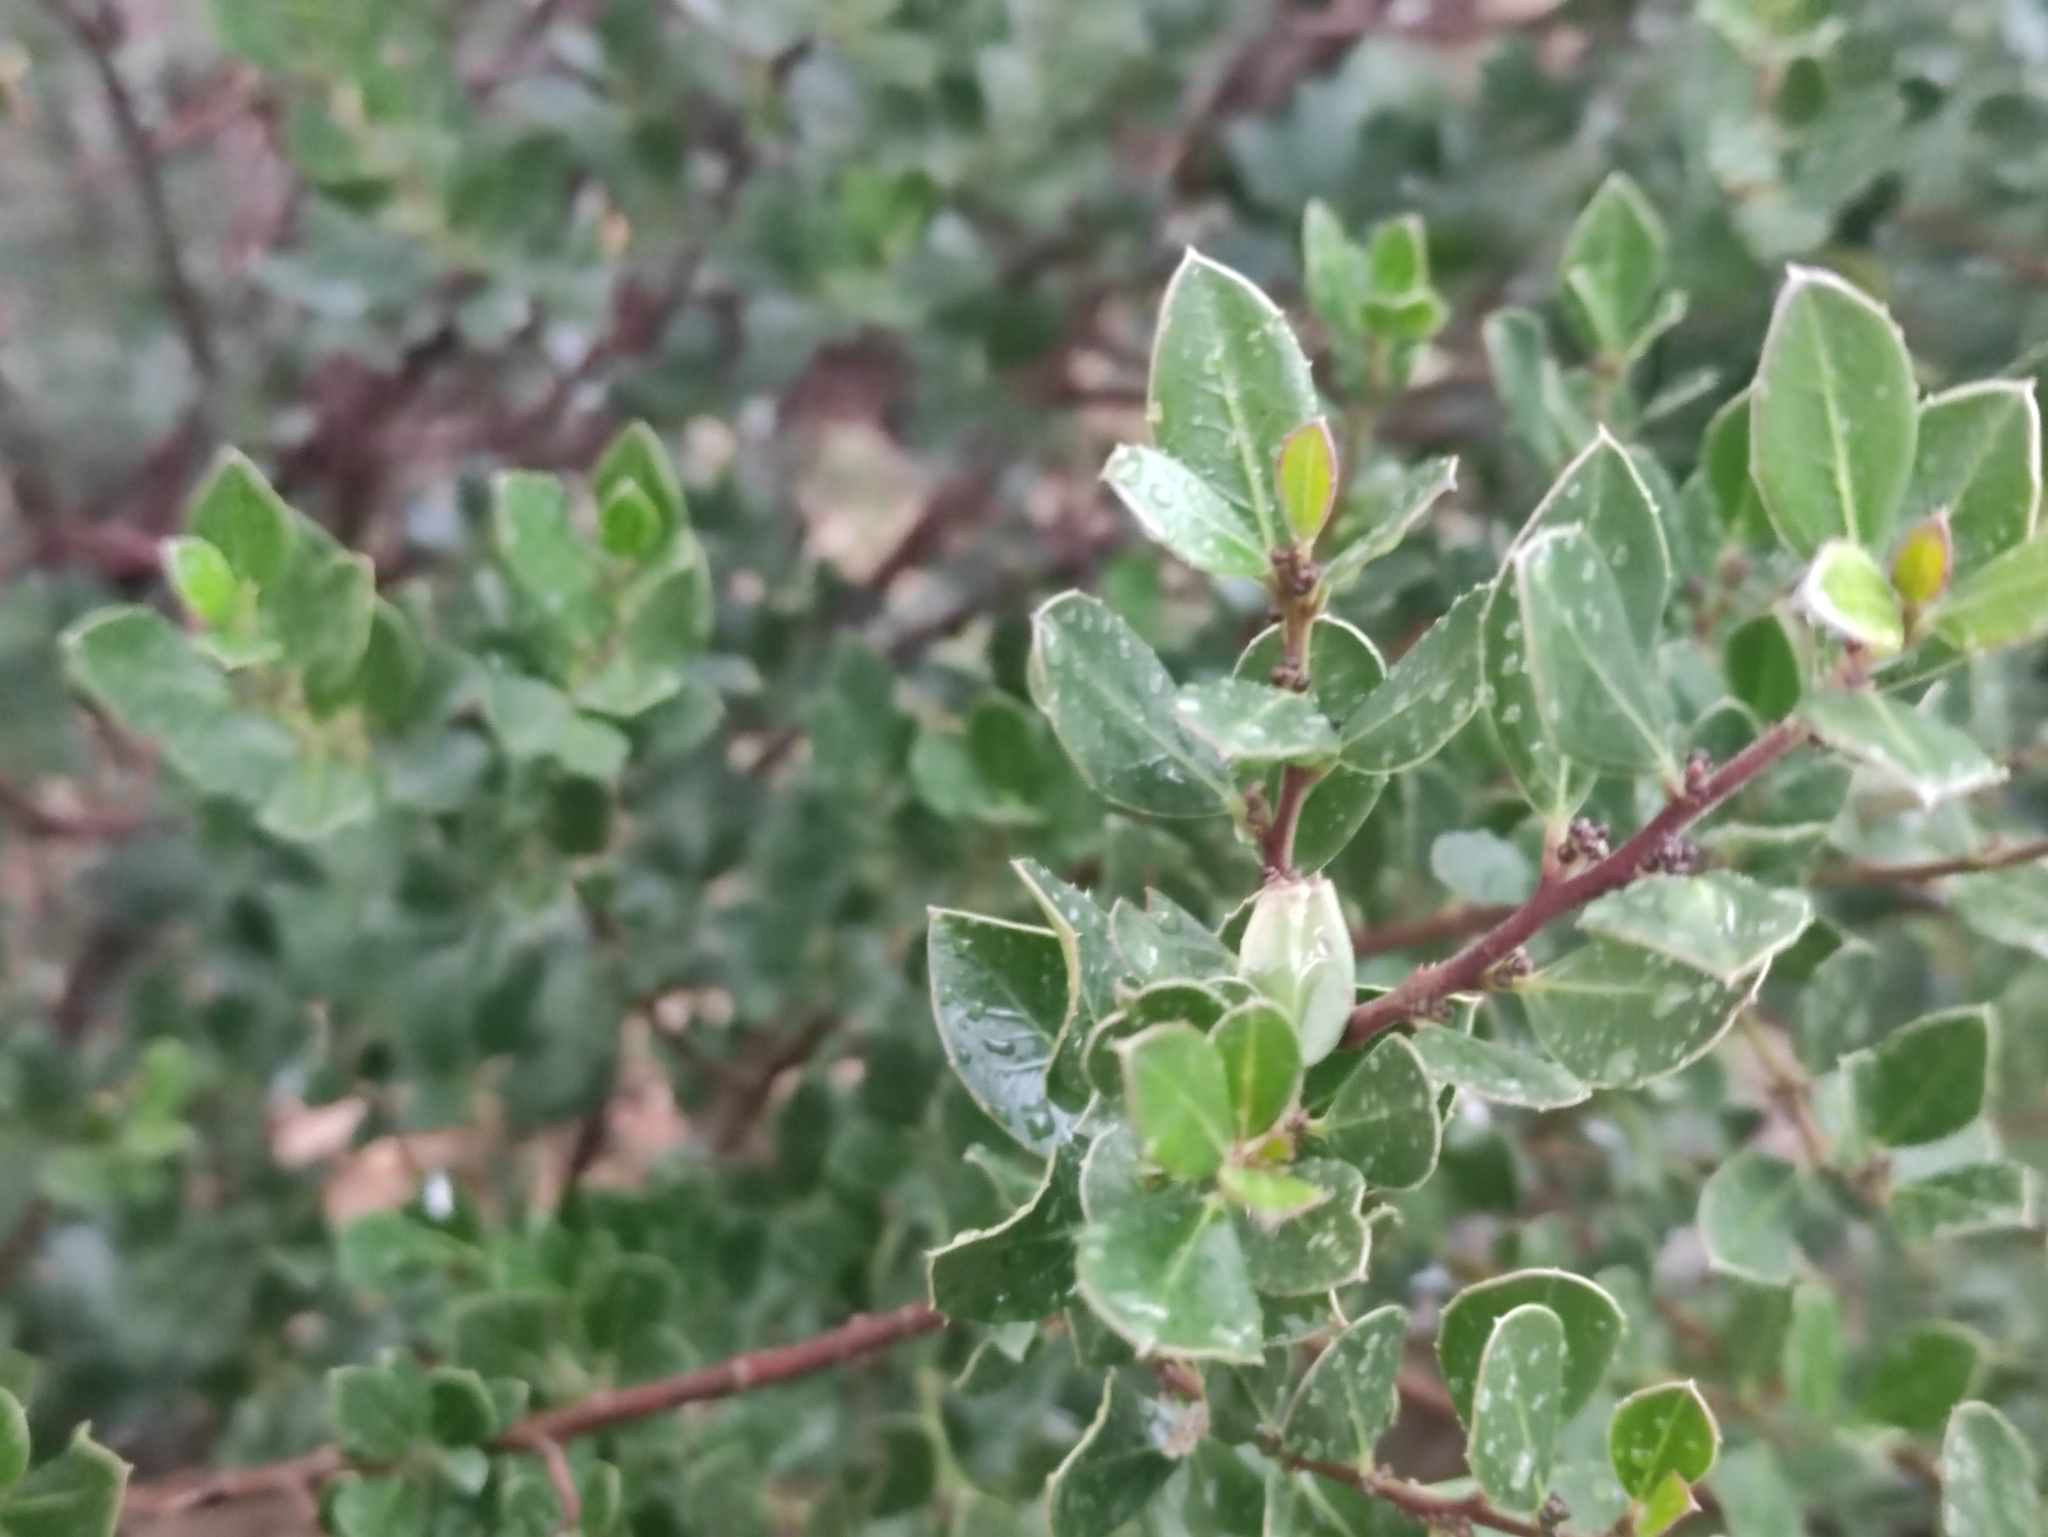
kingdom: Plantae
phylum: Tracheophyta
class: Magnoliopsida
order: Rosales
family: Rhamnaceae
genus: Rhamnus
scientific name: Rhamnus alaternus
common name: Mediterranean buckthorn
